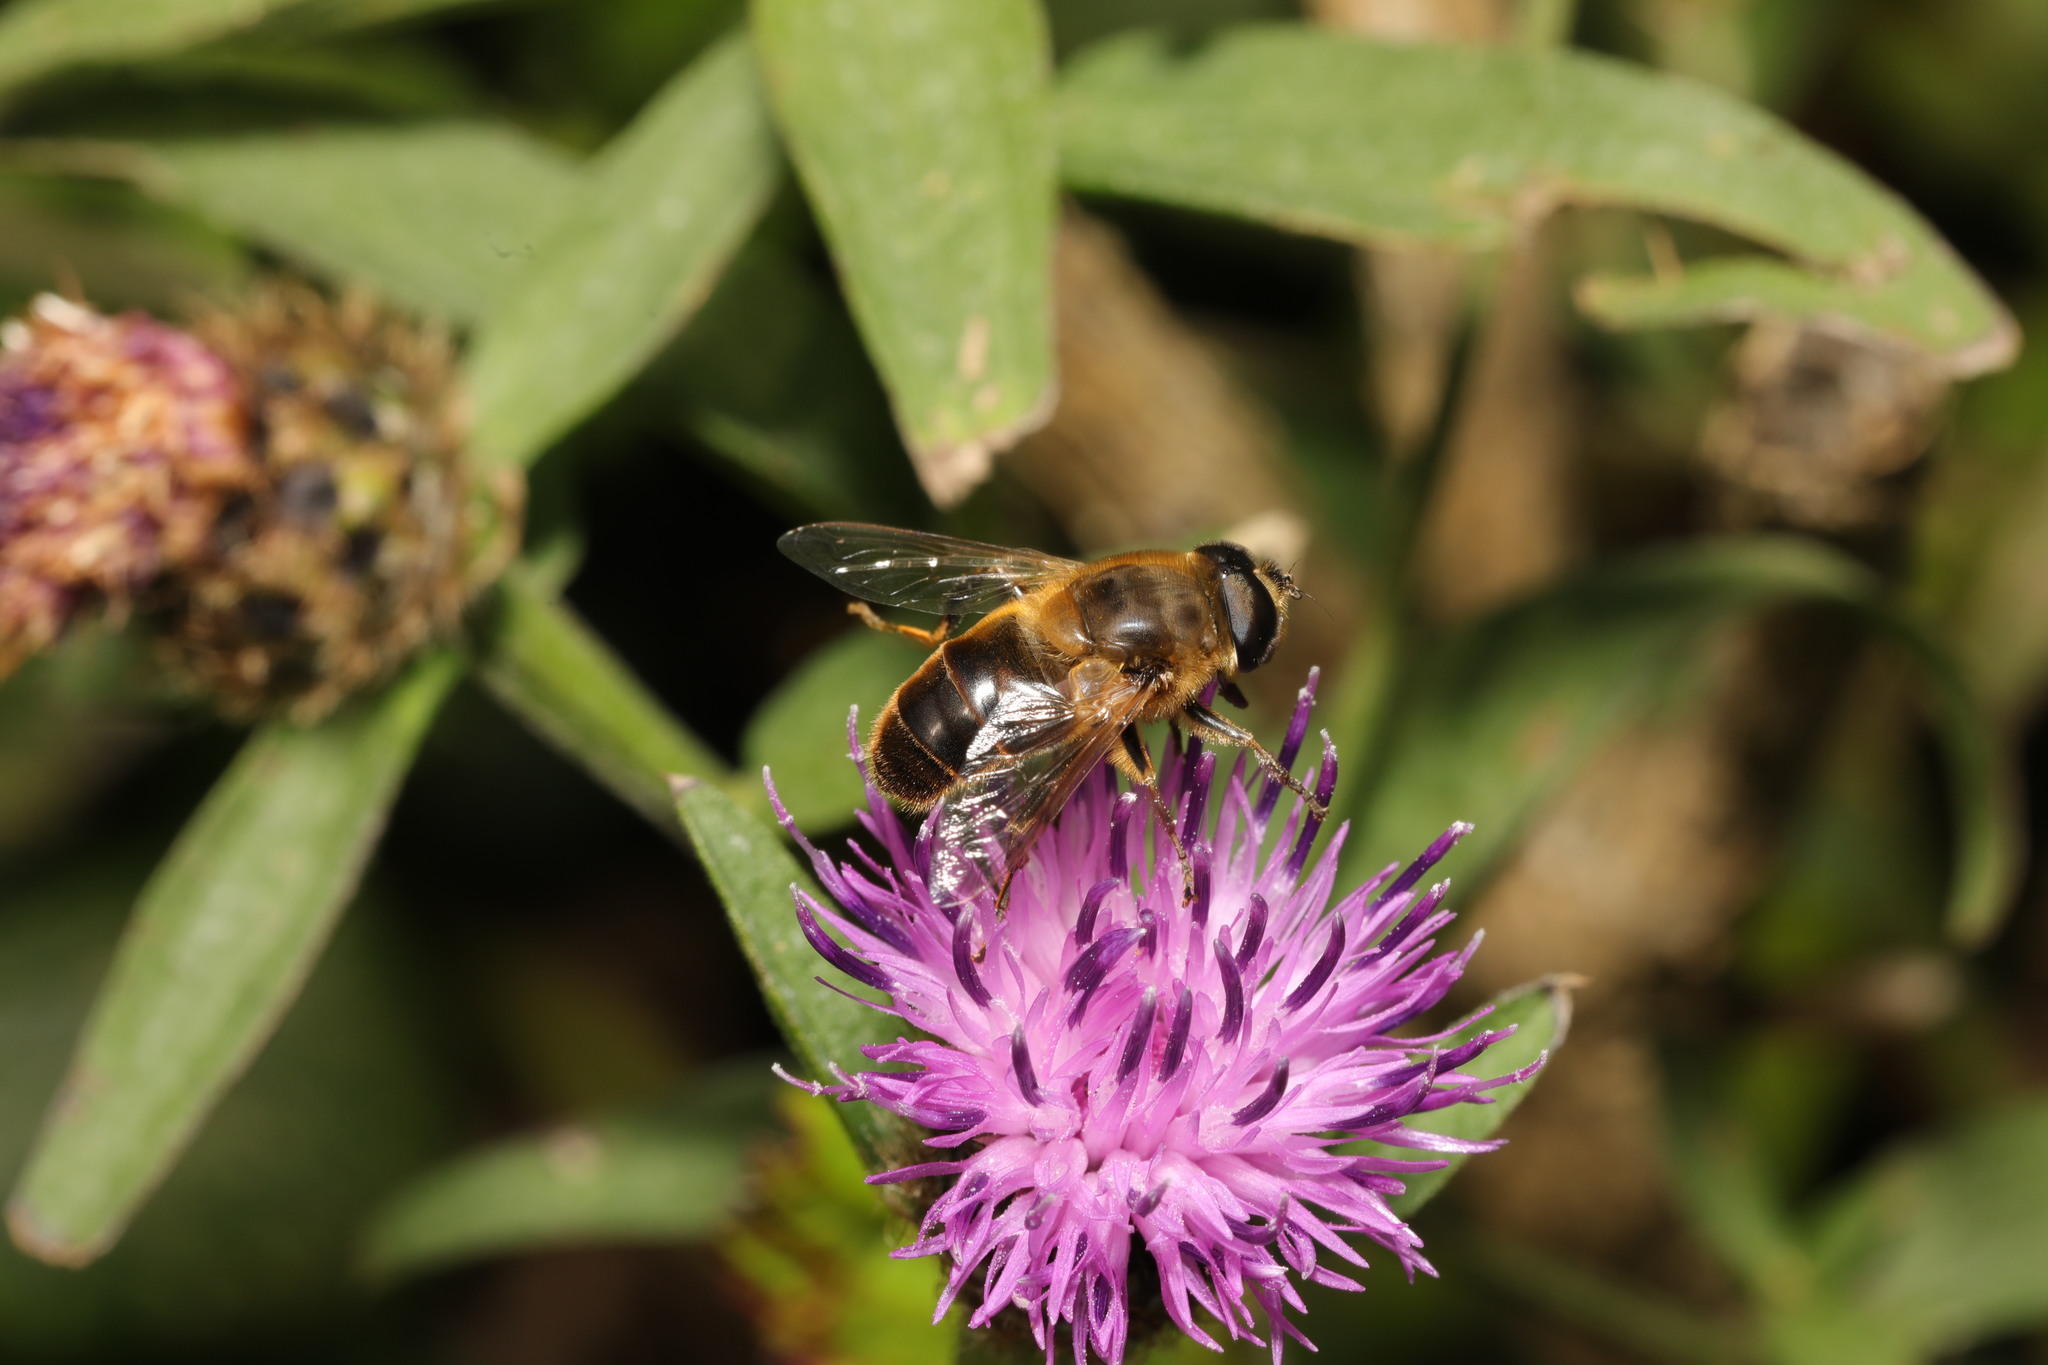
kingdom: Animalia
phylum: Arthropoda
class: Insecta
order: Diptera
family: Syrphidae
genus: Eristalis
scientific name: Eristalis tenax
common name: Drone fly
